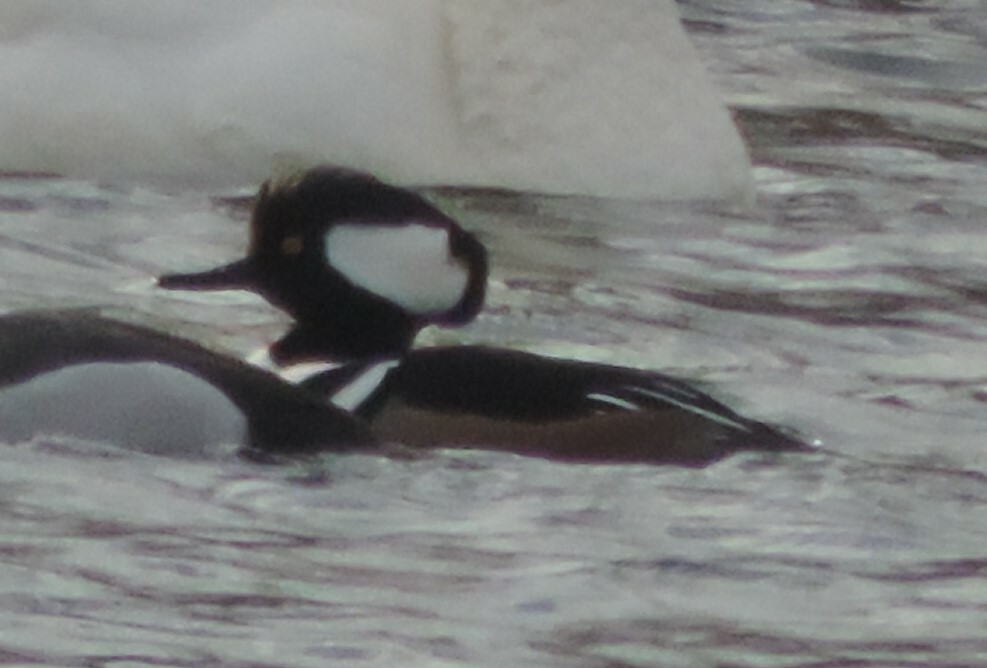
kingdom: Animalia
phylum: Chordata
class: Aves
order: Anseriformes
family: Anatidae
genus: Lophodytes
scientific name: Lophodytes cucullatus
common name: Hooded merganser
